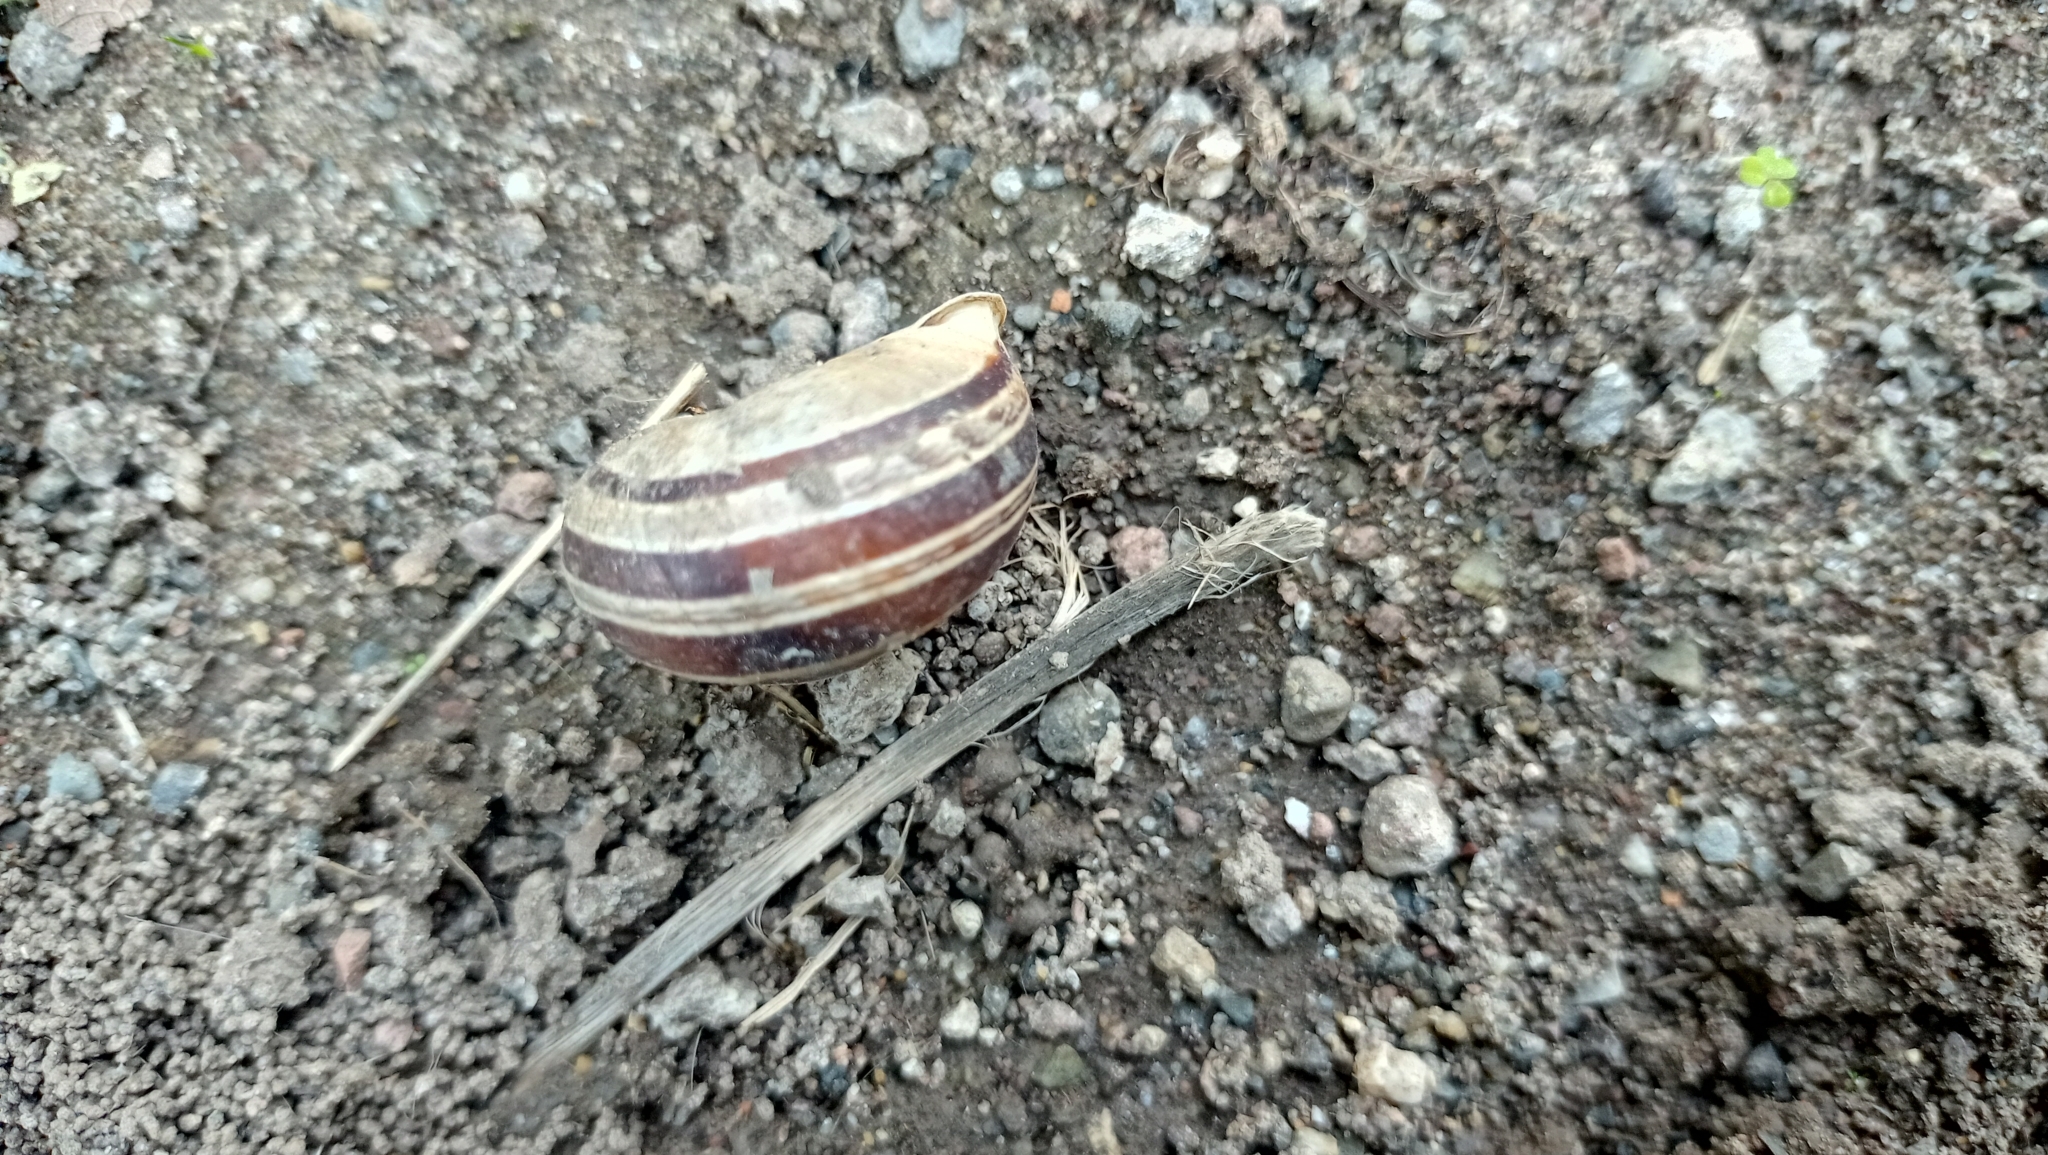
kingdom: Animalia
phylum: Mollusca
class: Gastropoda
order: Stylommatophora
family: Helicidae
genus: Eobania
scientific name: Eobania vermiculata
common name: Chocolateband snail
